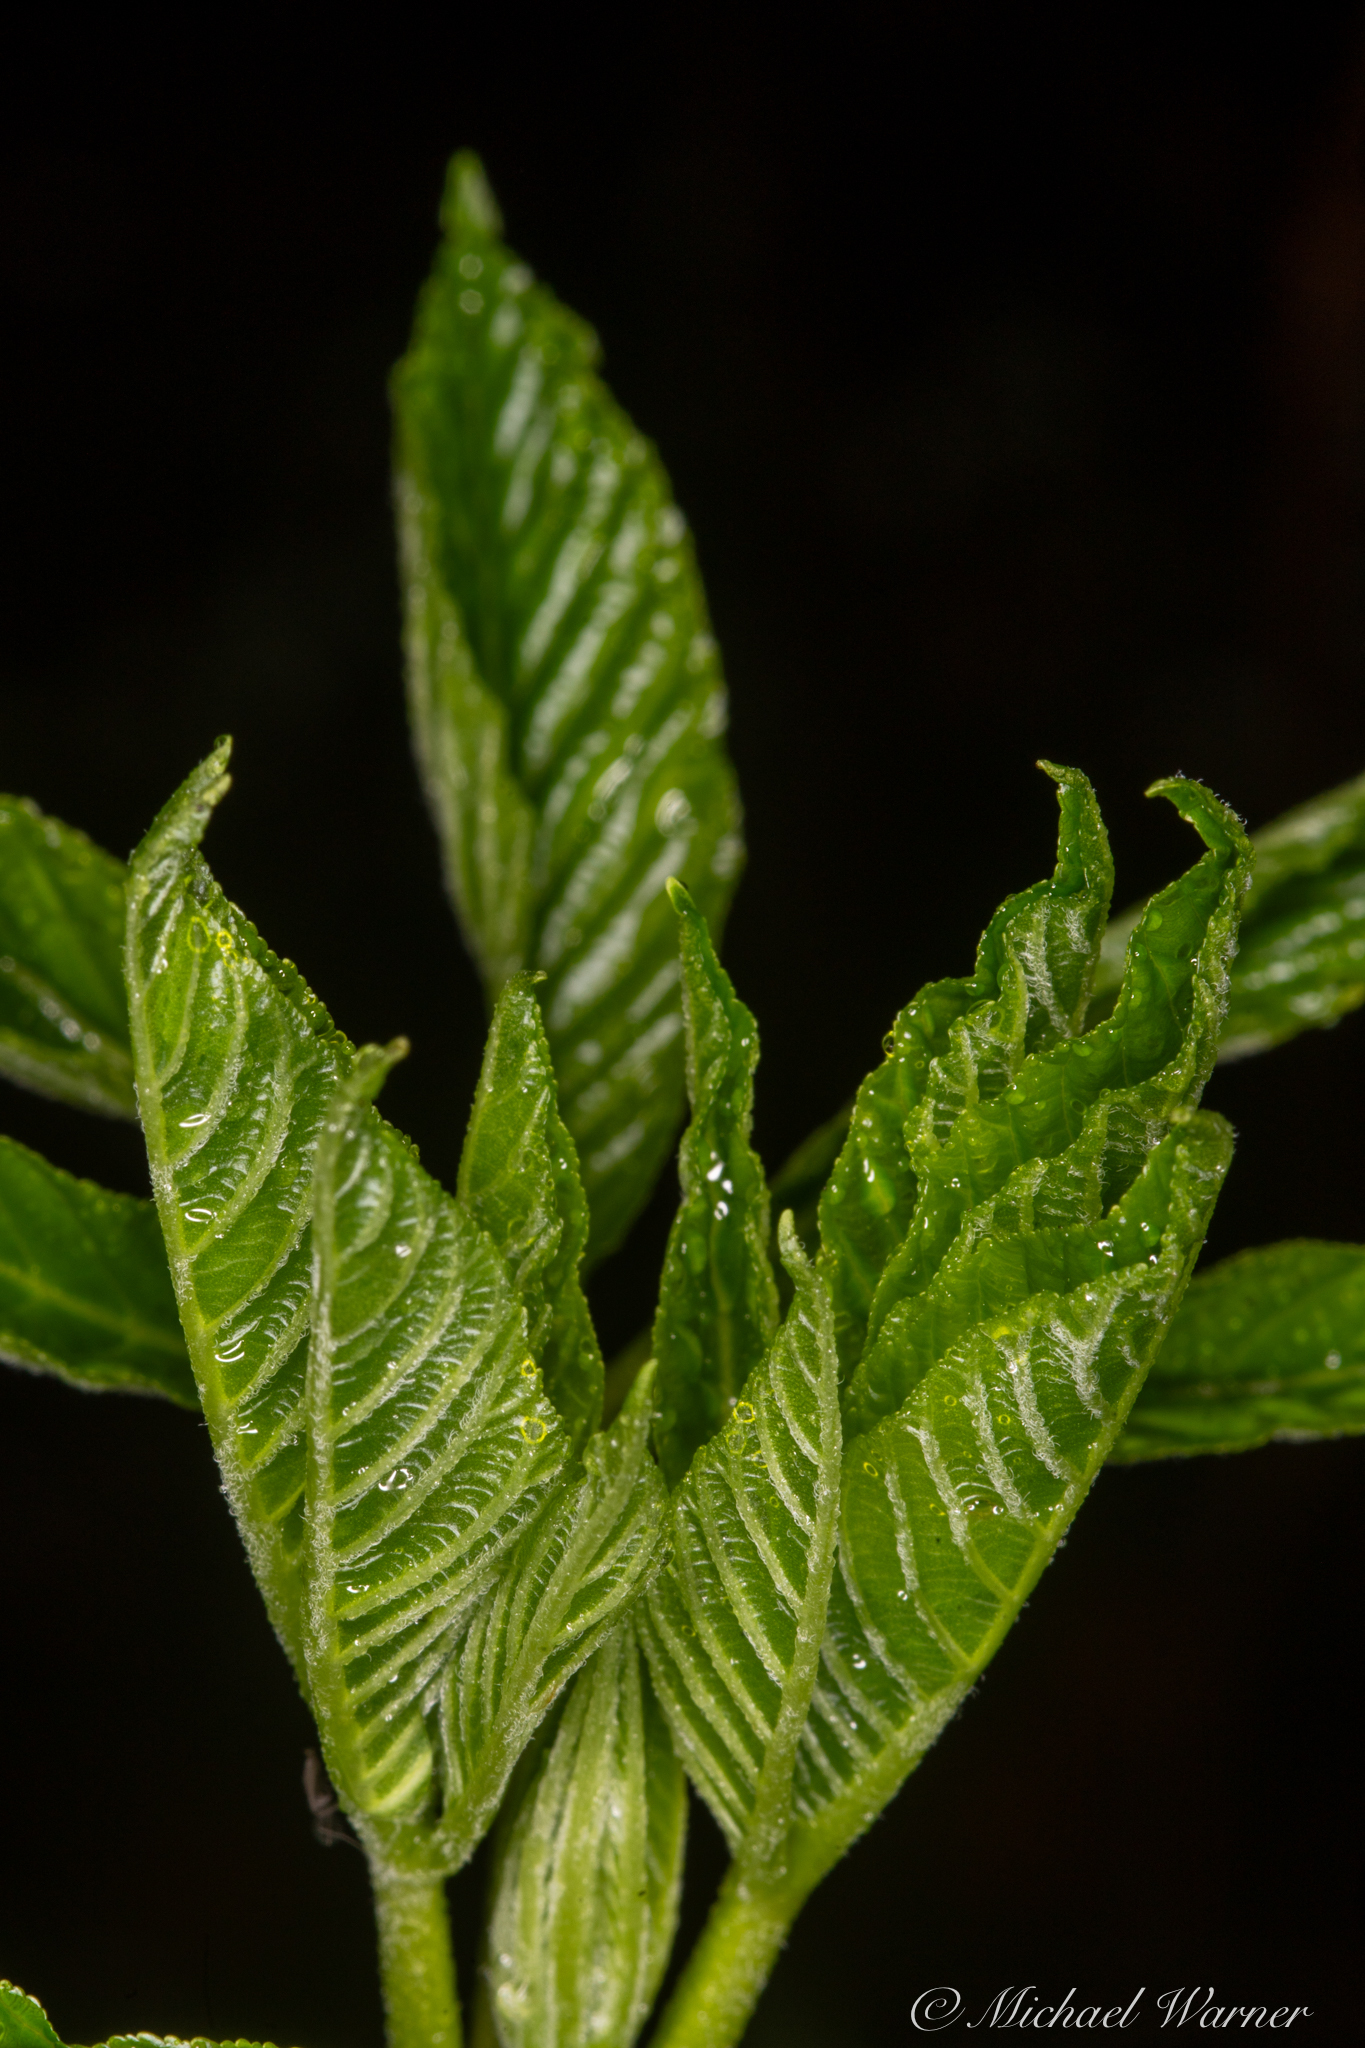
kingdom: Plantae
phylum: Tracheophyta
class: Magnoliopsida
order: Sapindales
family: Sapindaceae
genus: Aesculus
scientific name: Aesculus californica
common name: California buckeye
